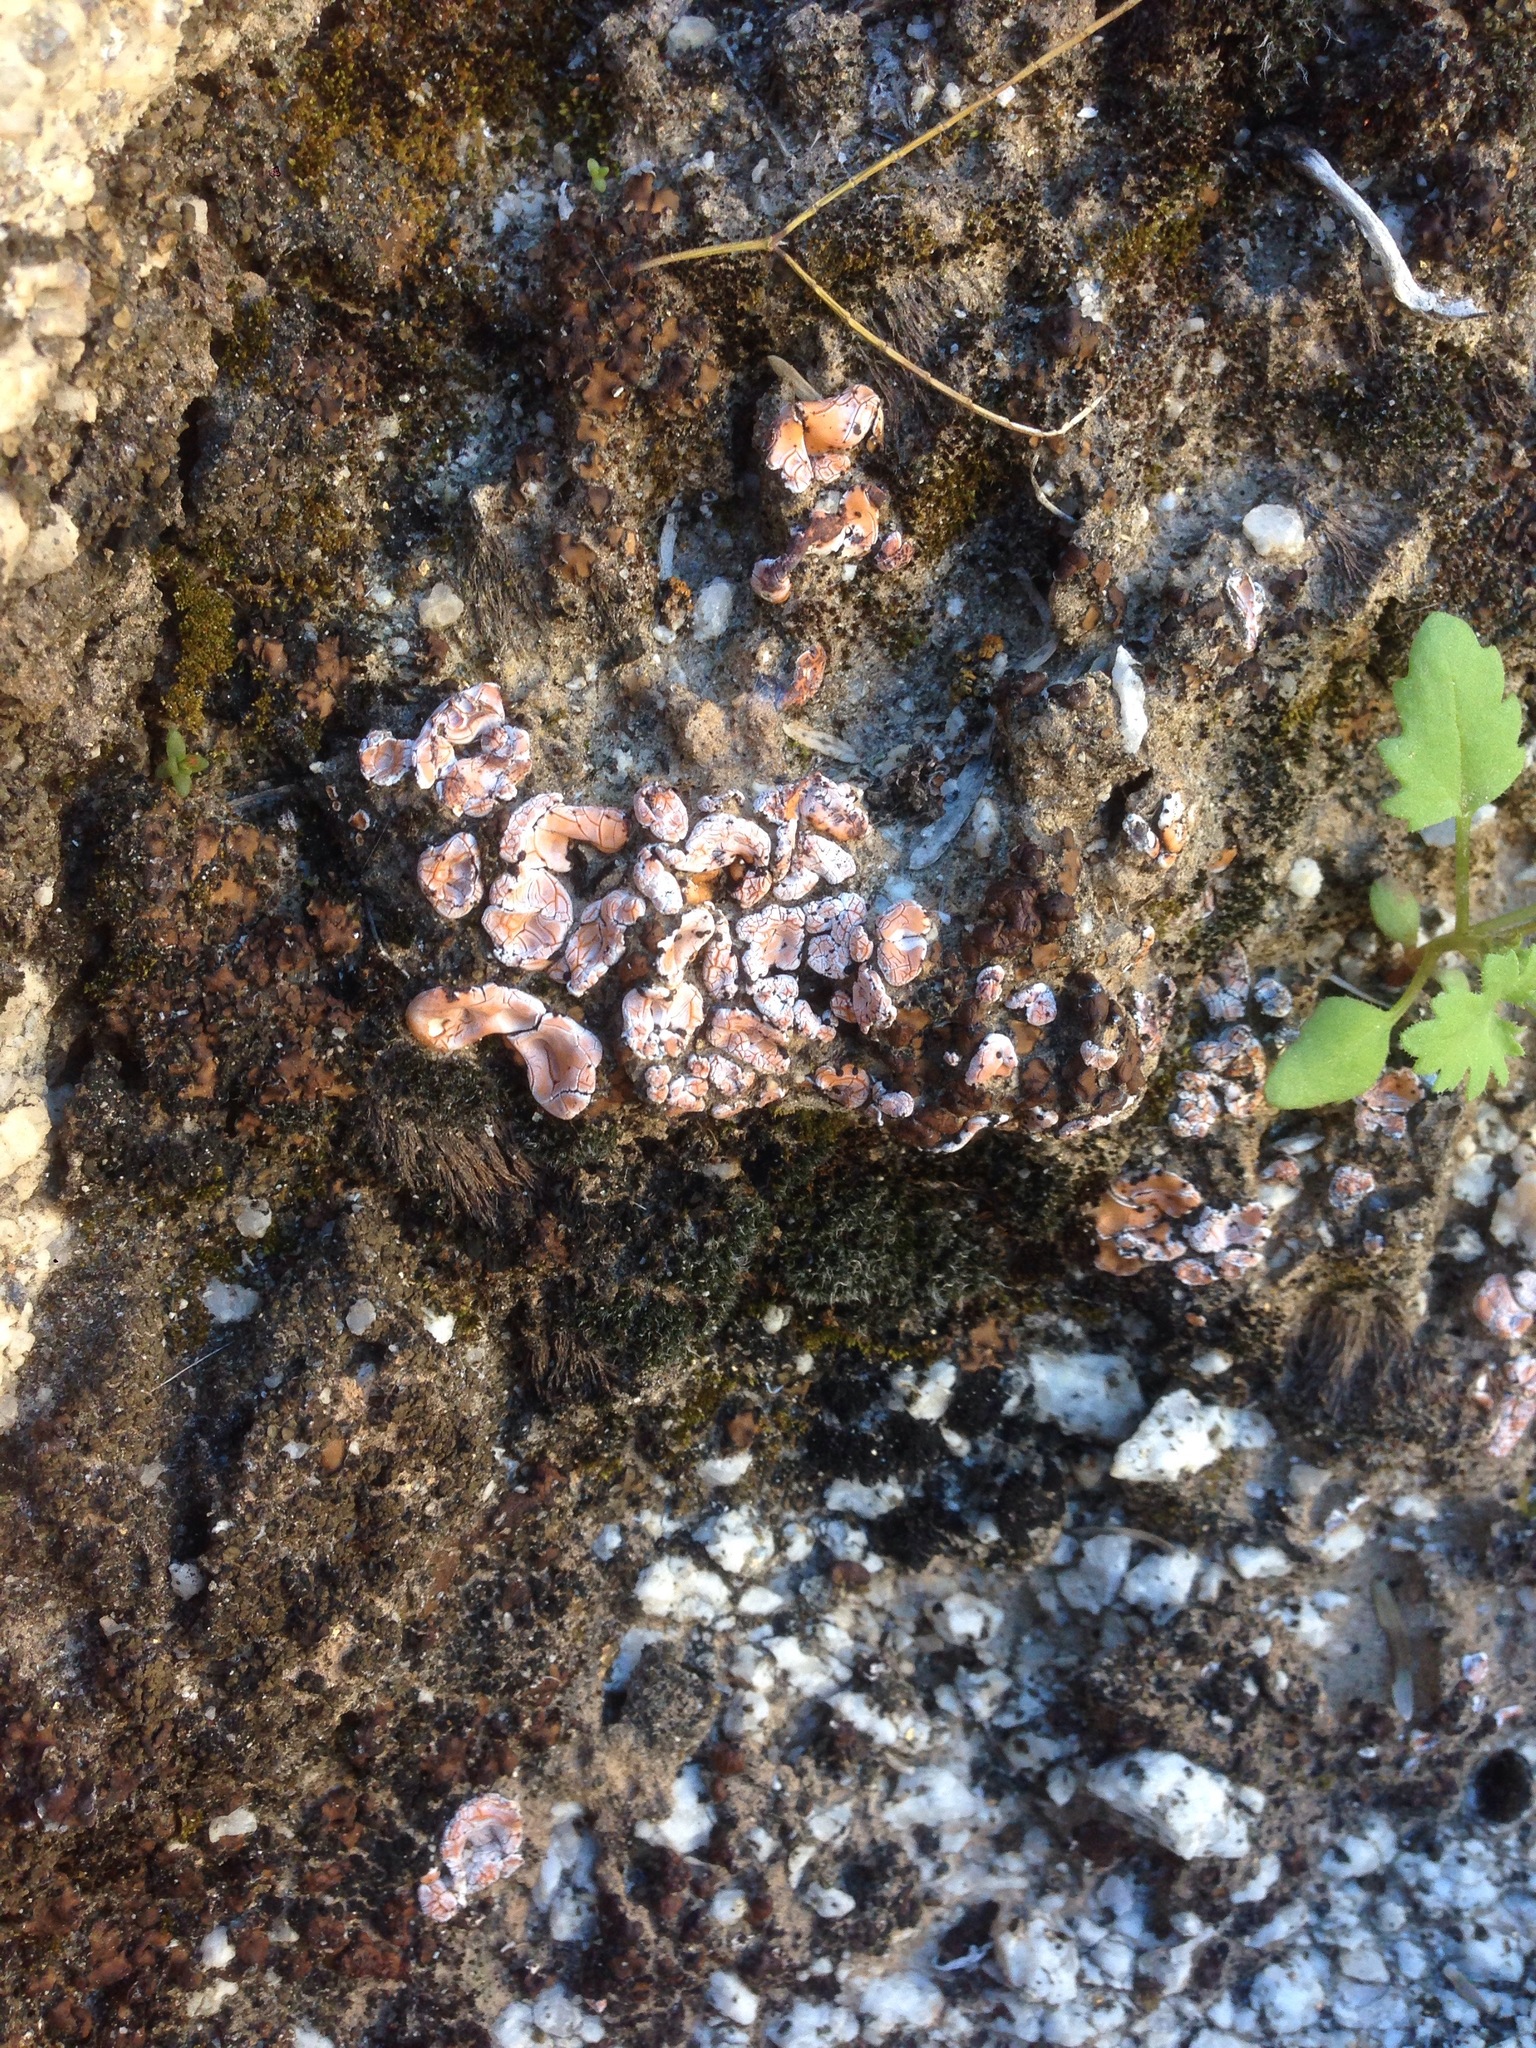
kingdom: Fungi
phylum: Ascomycota
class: Lecanoromycetes
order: Lecanorales
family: Psoraceae
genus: Psora
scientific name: Psora crenata
